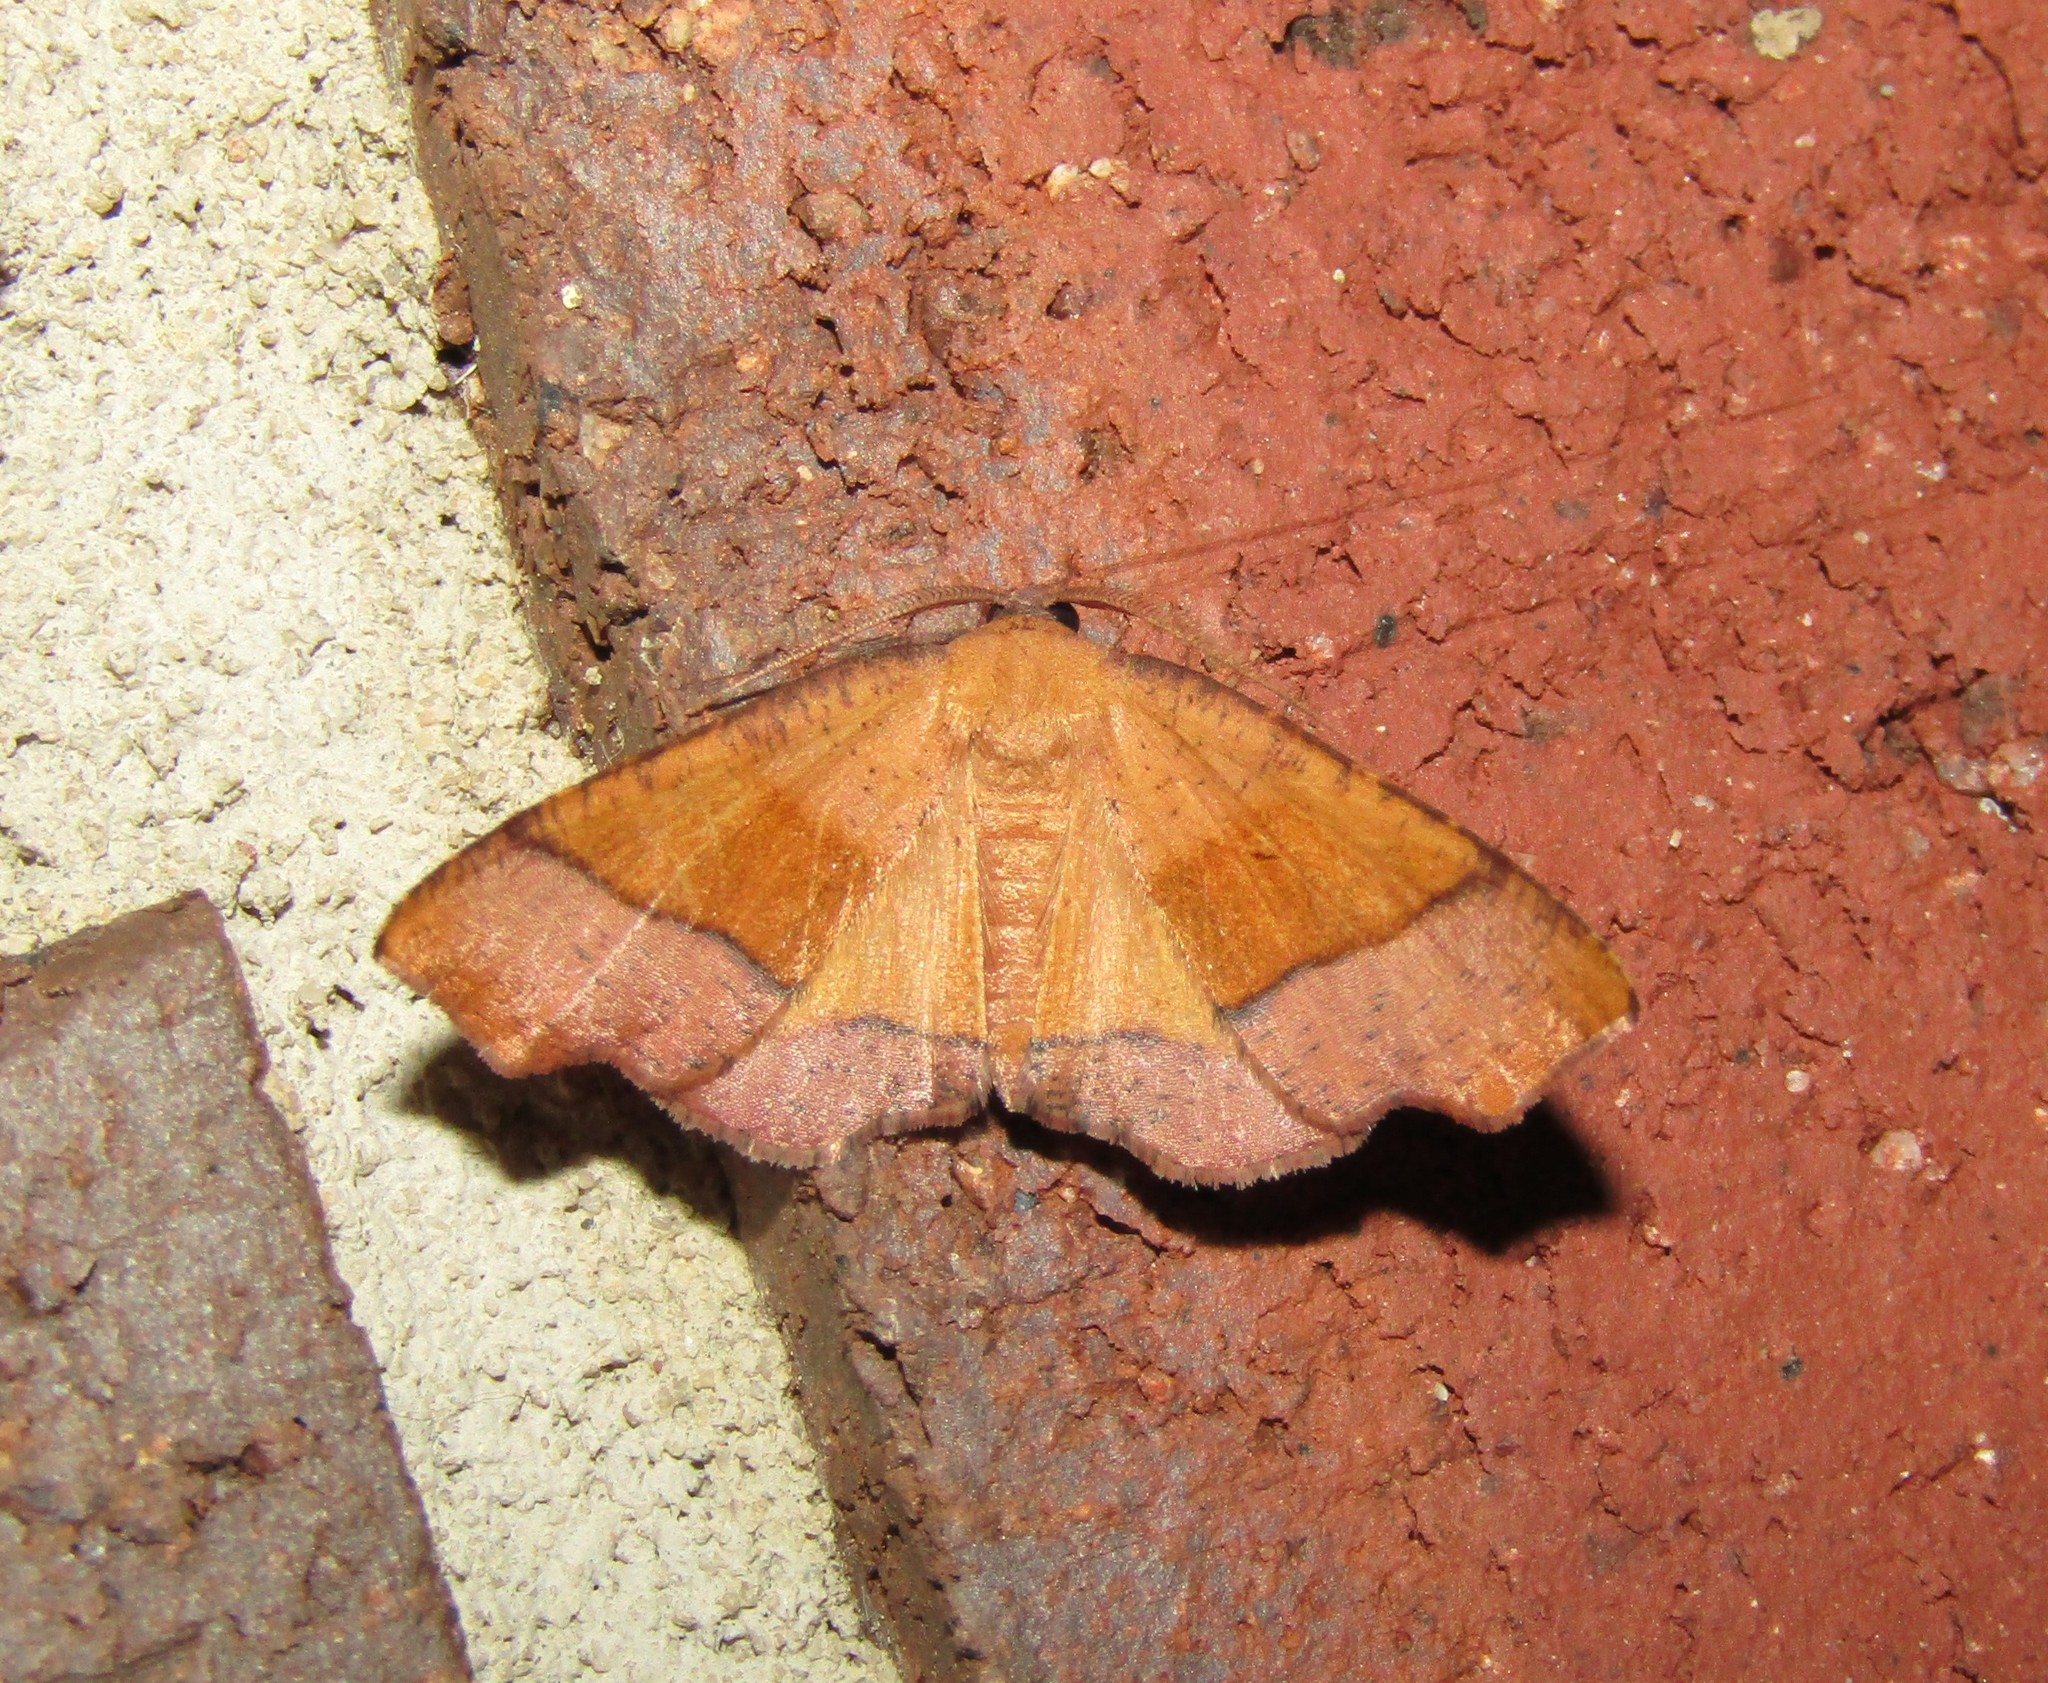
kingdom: Animalia
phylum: Arthropoda
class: Insecta
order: Lepidoptera
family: Geometridae
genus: Plagodis
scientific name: Plagodis phlogosaria
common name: Straight-lined plagodis
